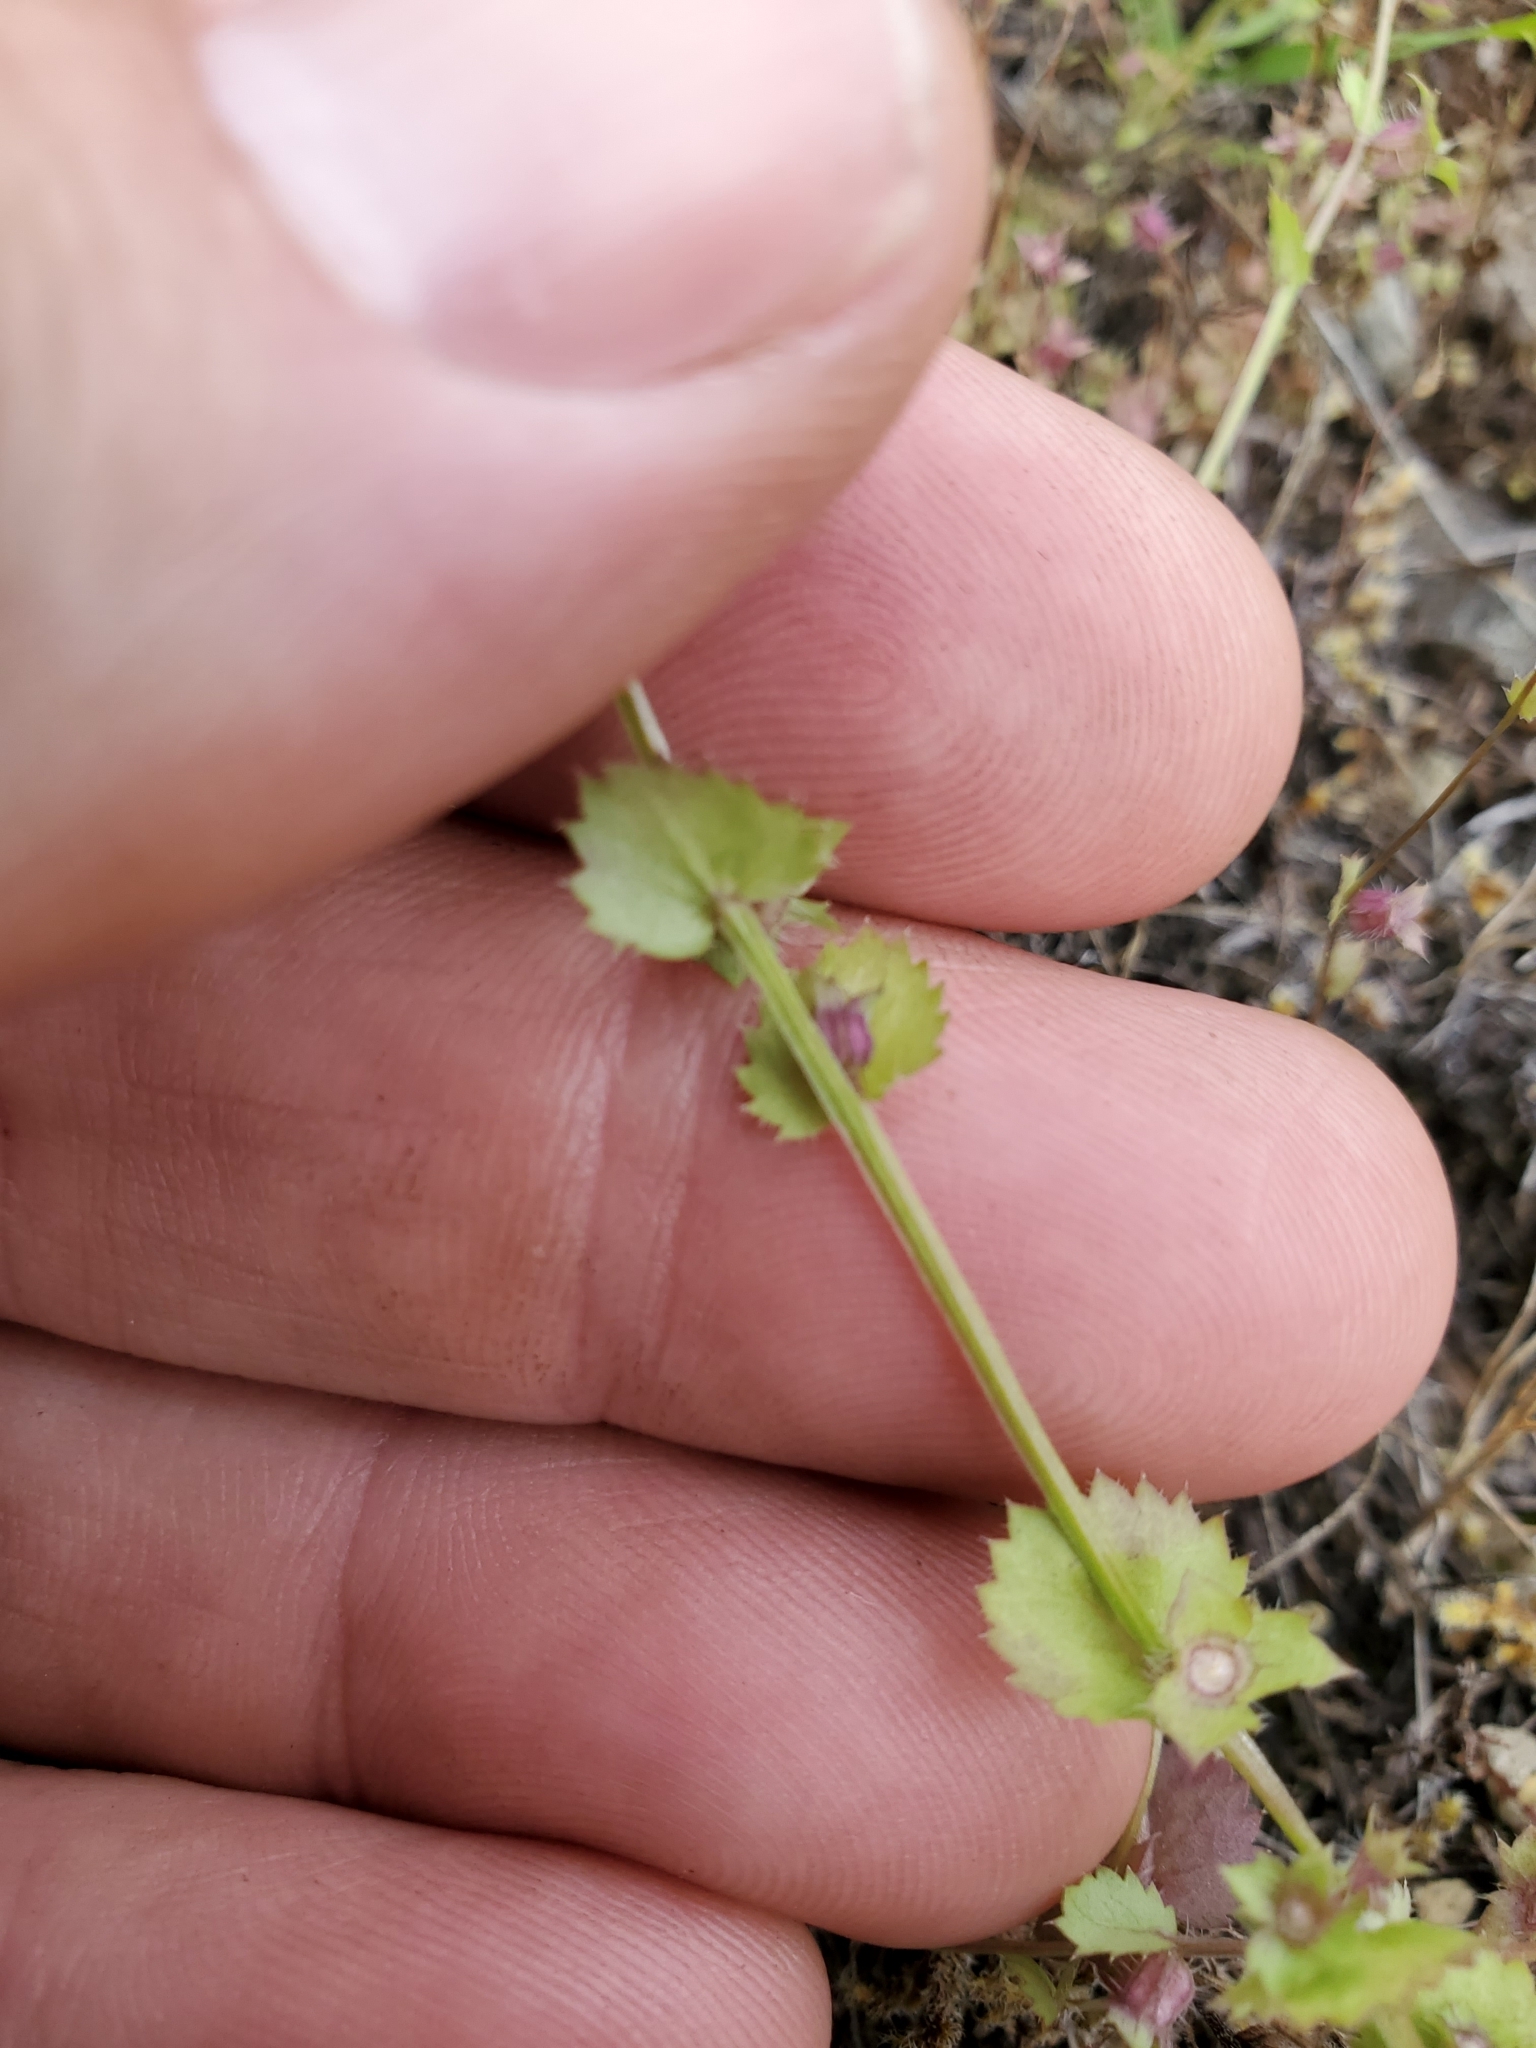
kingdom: Plantae
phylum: Tracheophyta
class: Magnoliopsida
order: Asterales
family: Campanulaceae
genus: Heterocodon
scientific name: Heterocodon rariflorum
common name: Rareflower heterocodon
